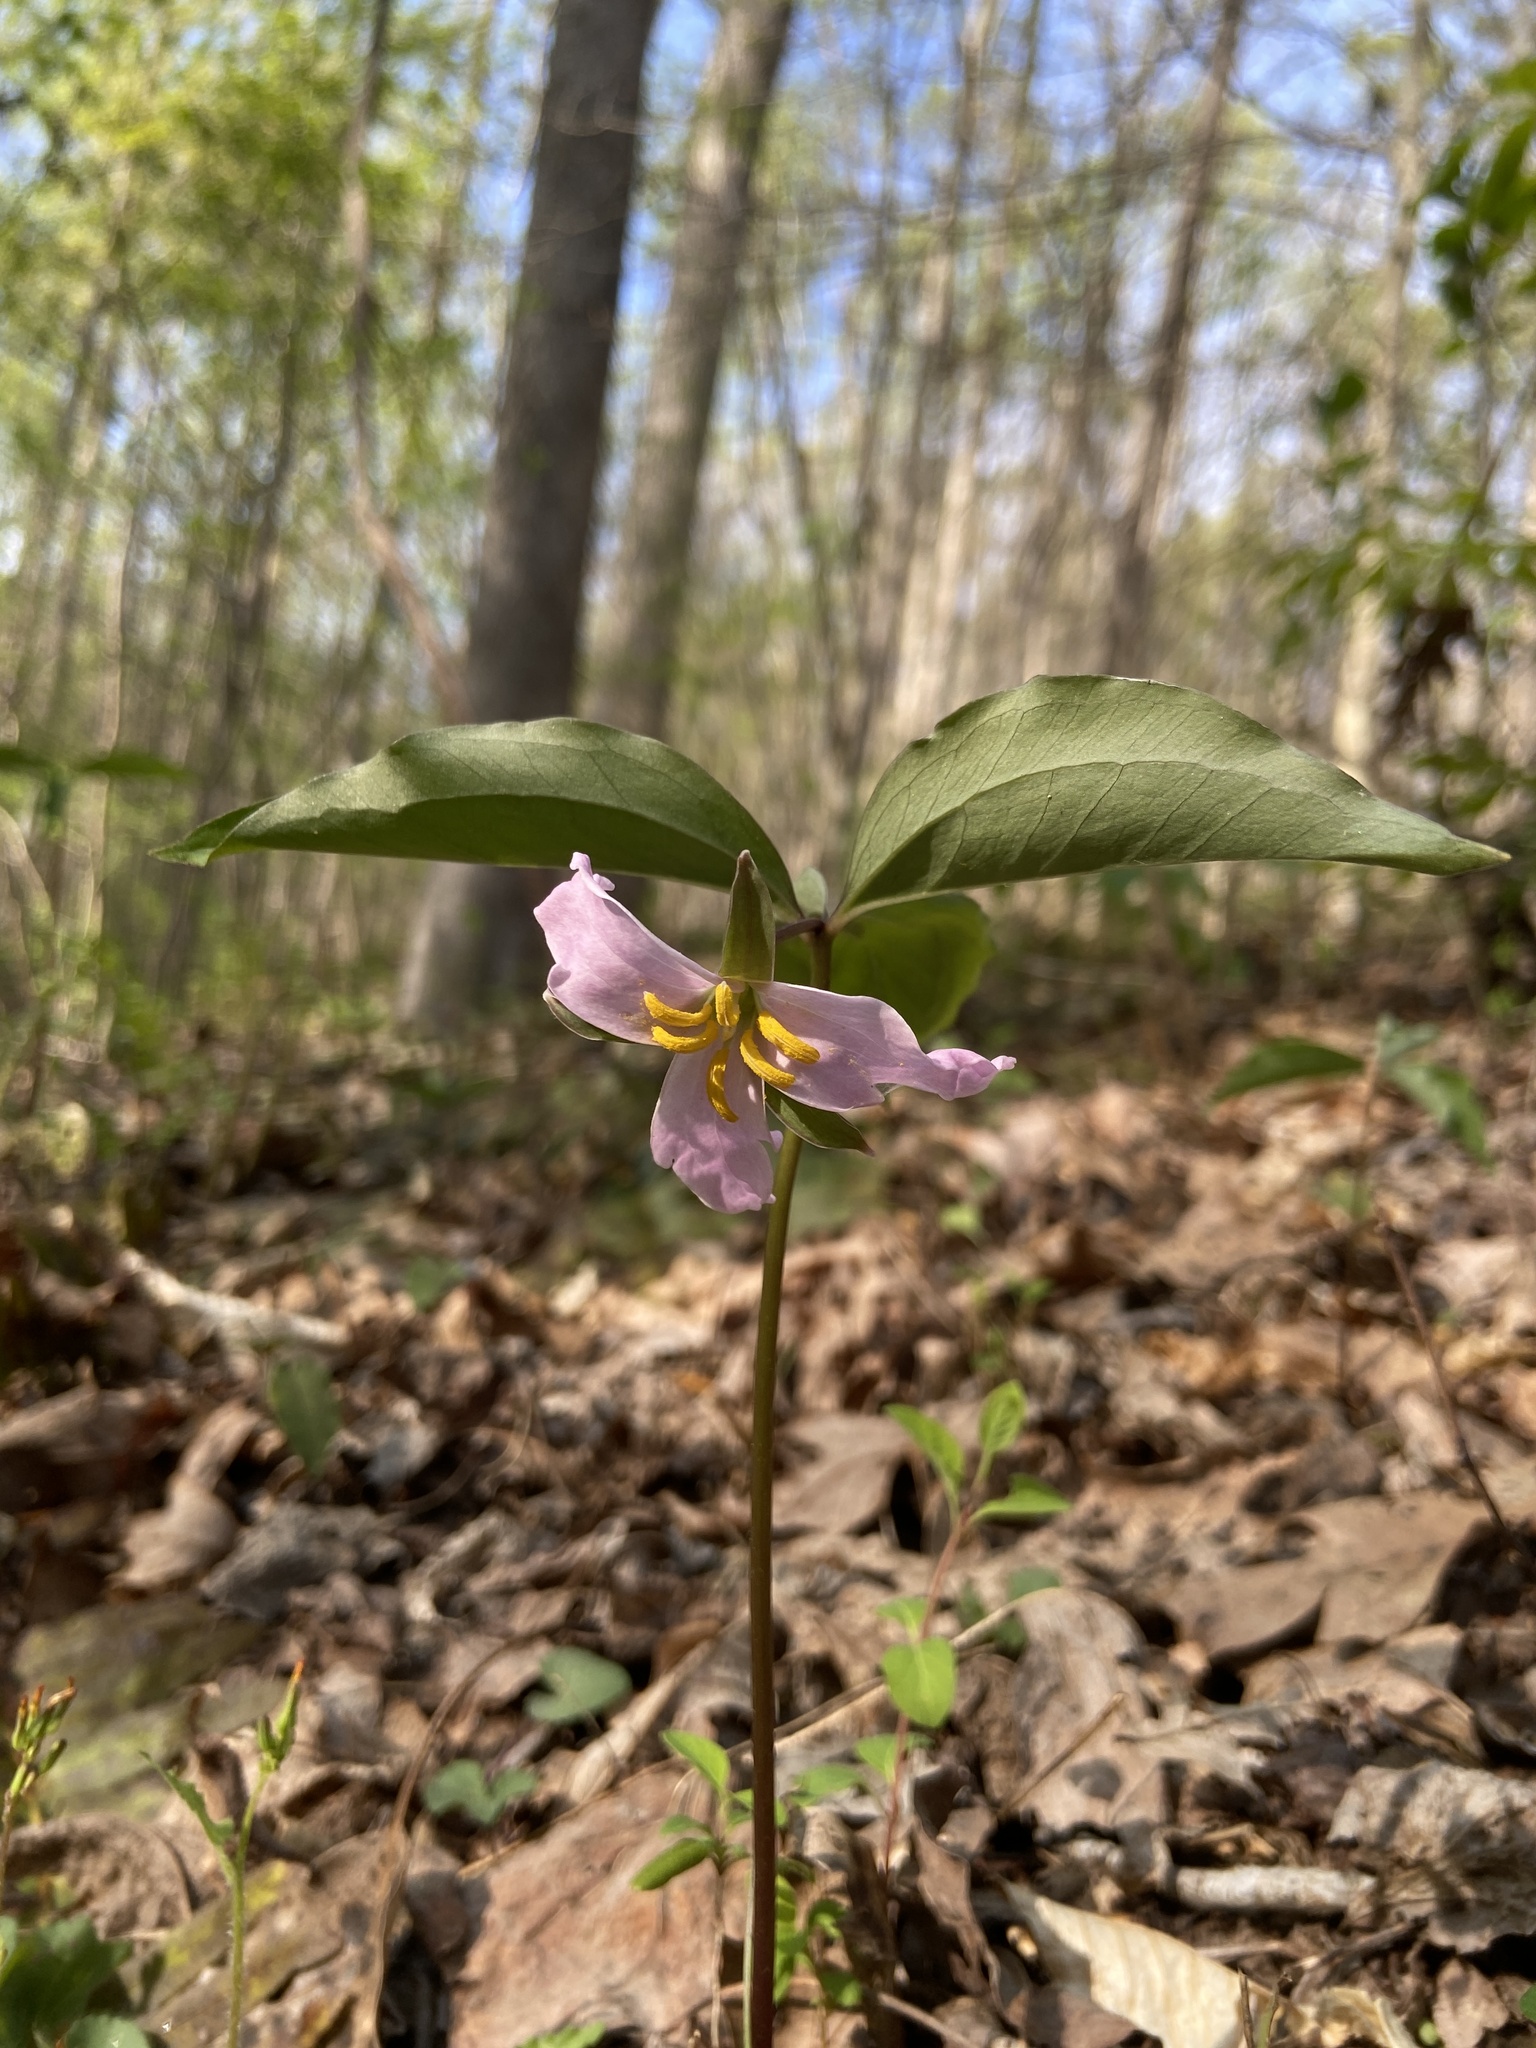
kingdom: Plantae
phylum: Tracheophyta
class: Liliopsida
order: Liliales
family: Melanthiaceae
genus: Trillium
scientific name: Trillium catesbaei
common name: Bashful trillium
